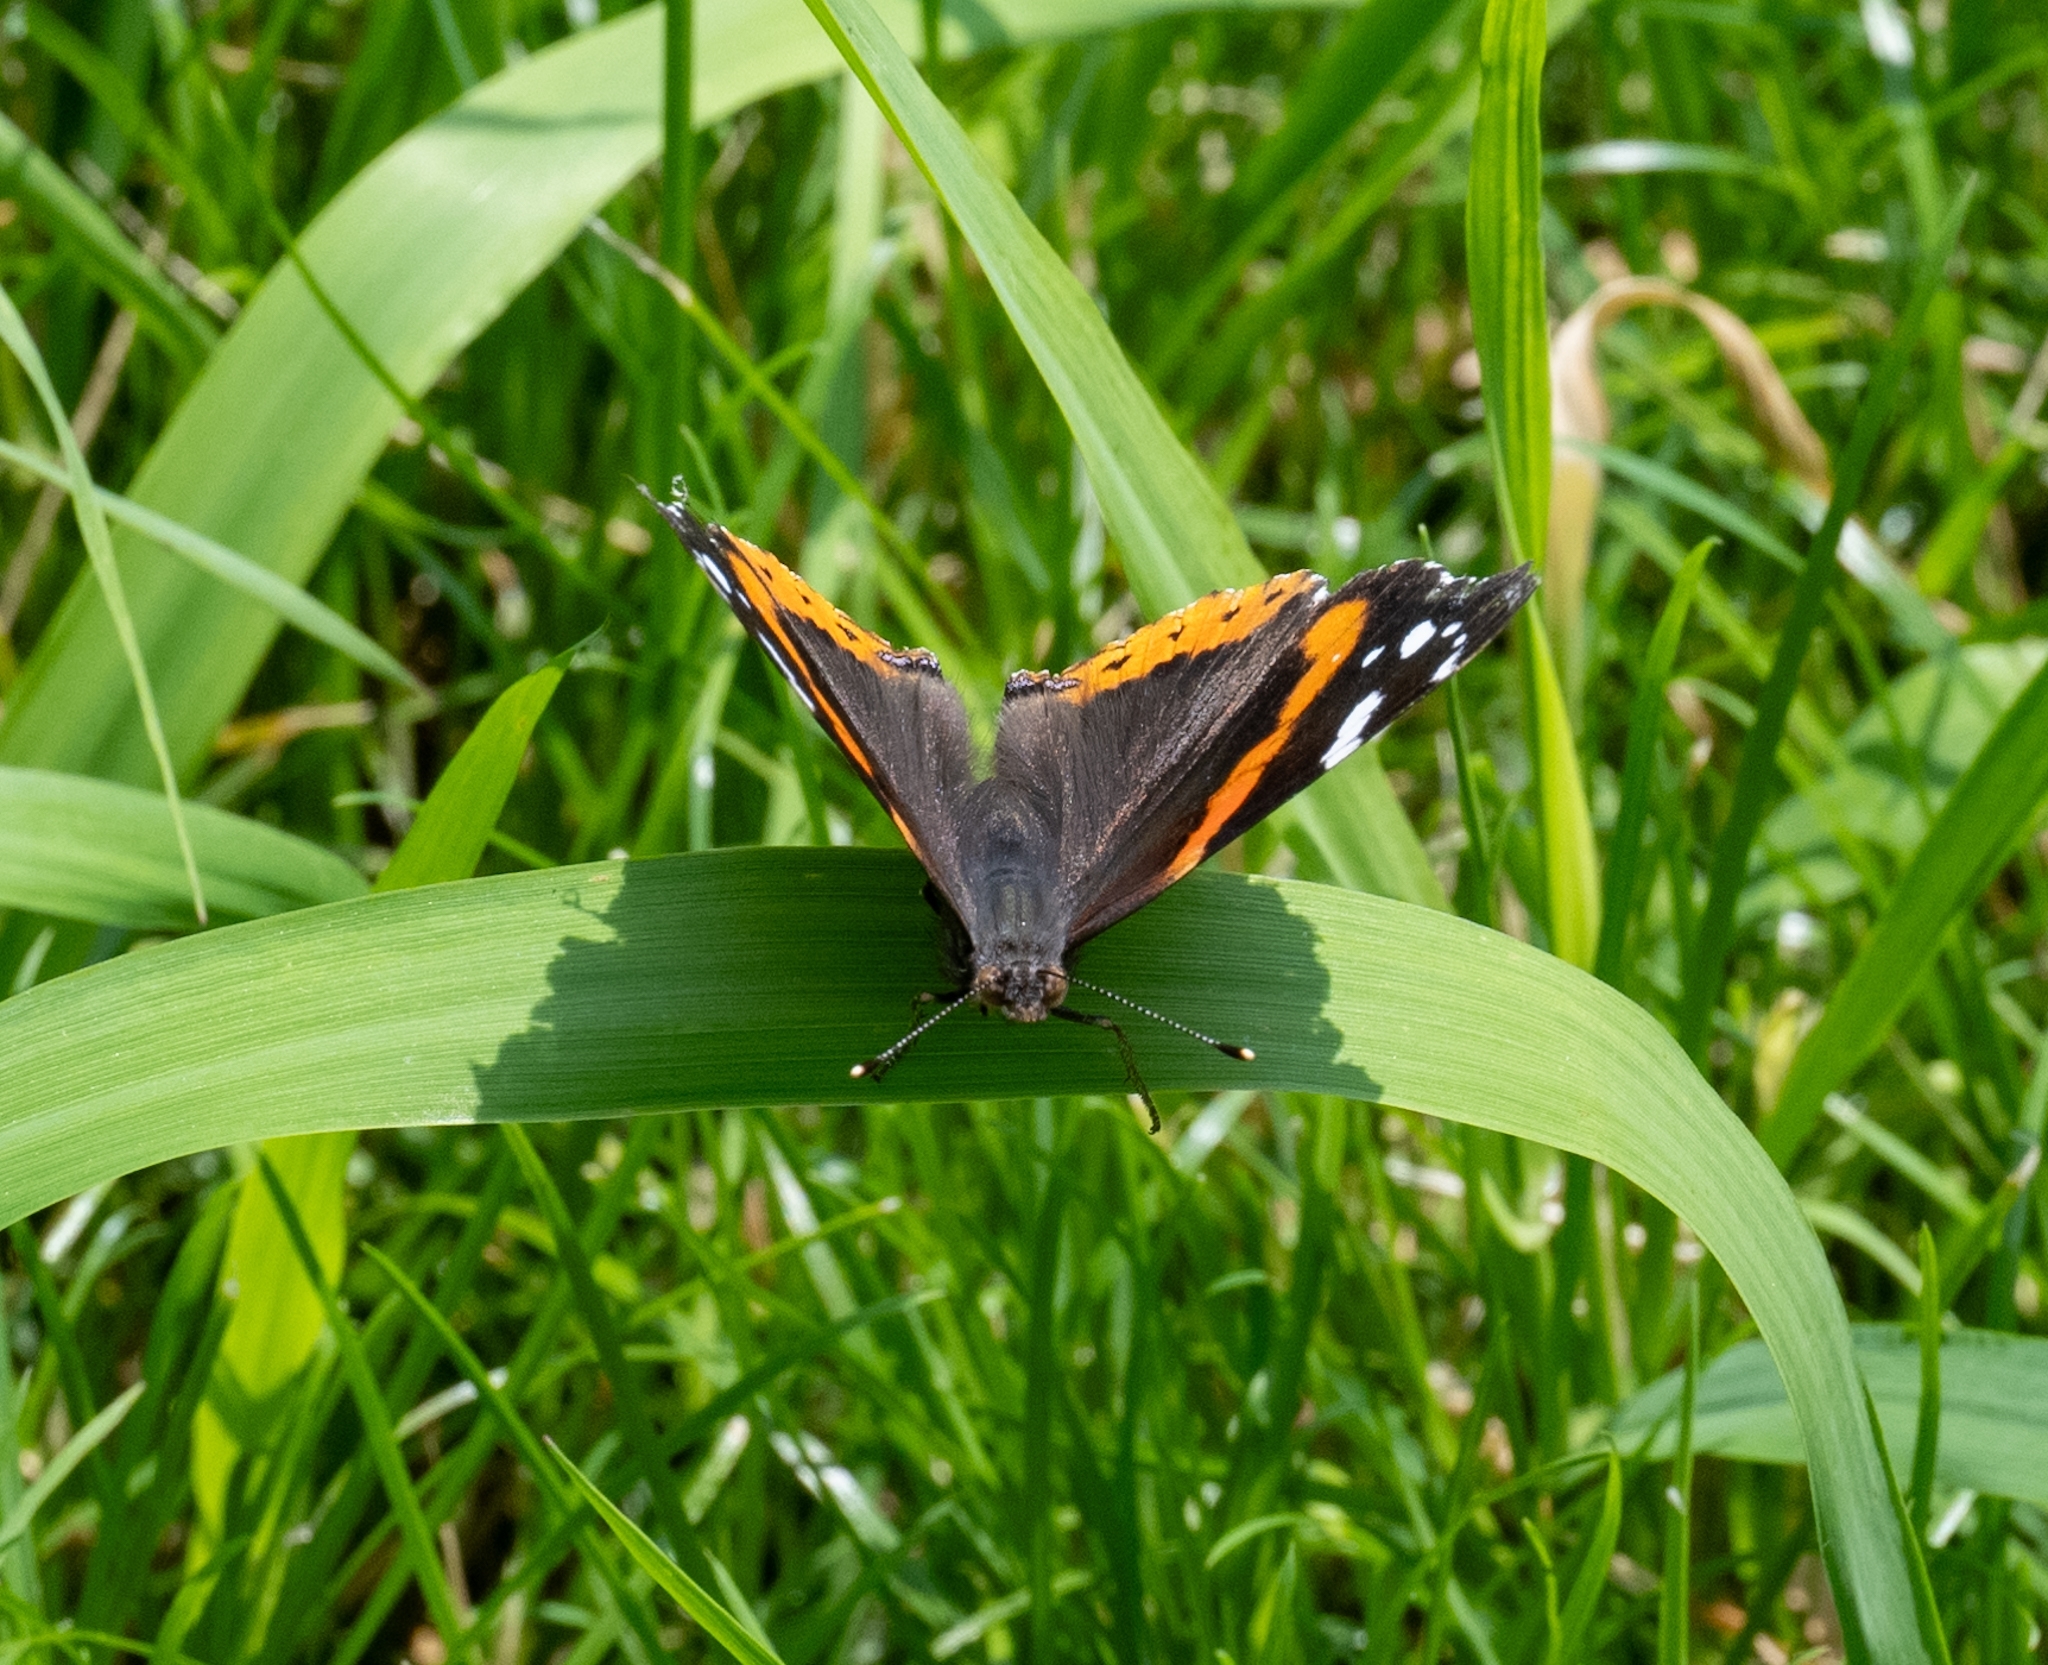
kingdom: Animalia
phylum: Arthropoda
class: Insecta
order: Lepidoptera
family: Nymphalidae
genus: Vanessa
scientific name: Vanessa atalanta
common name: Red admiral
